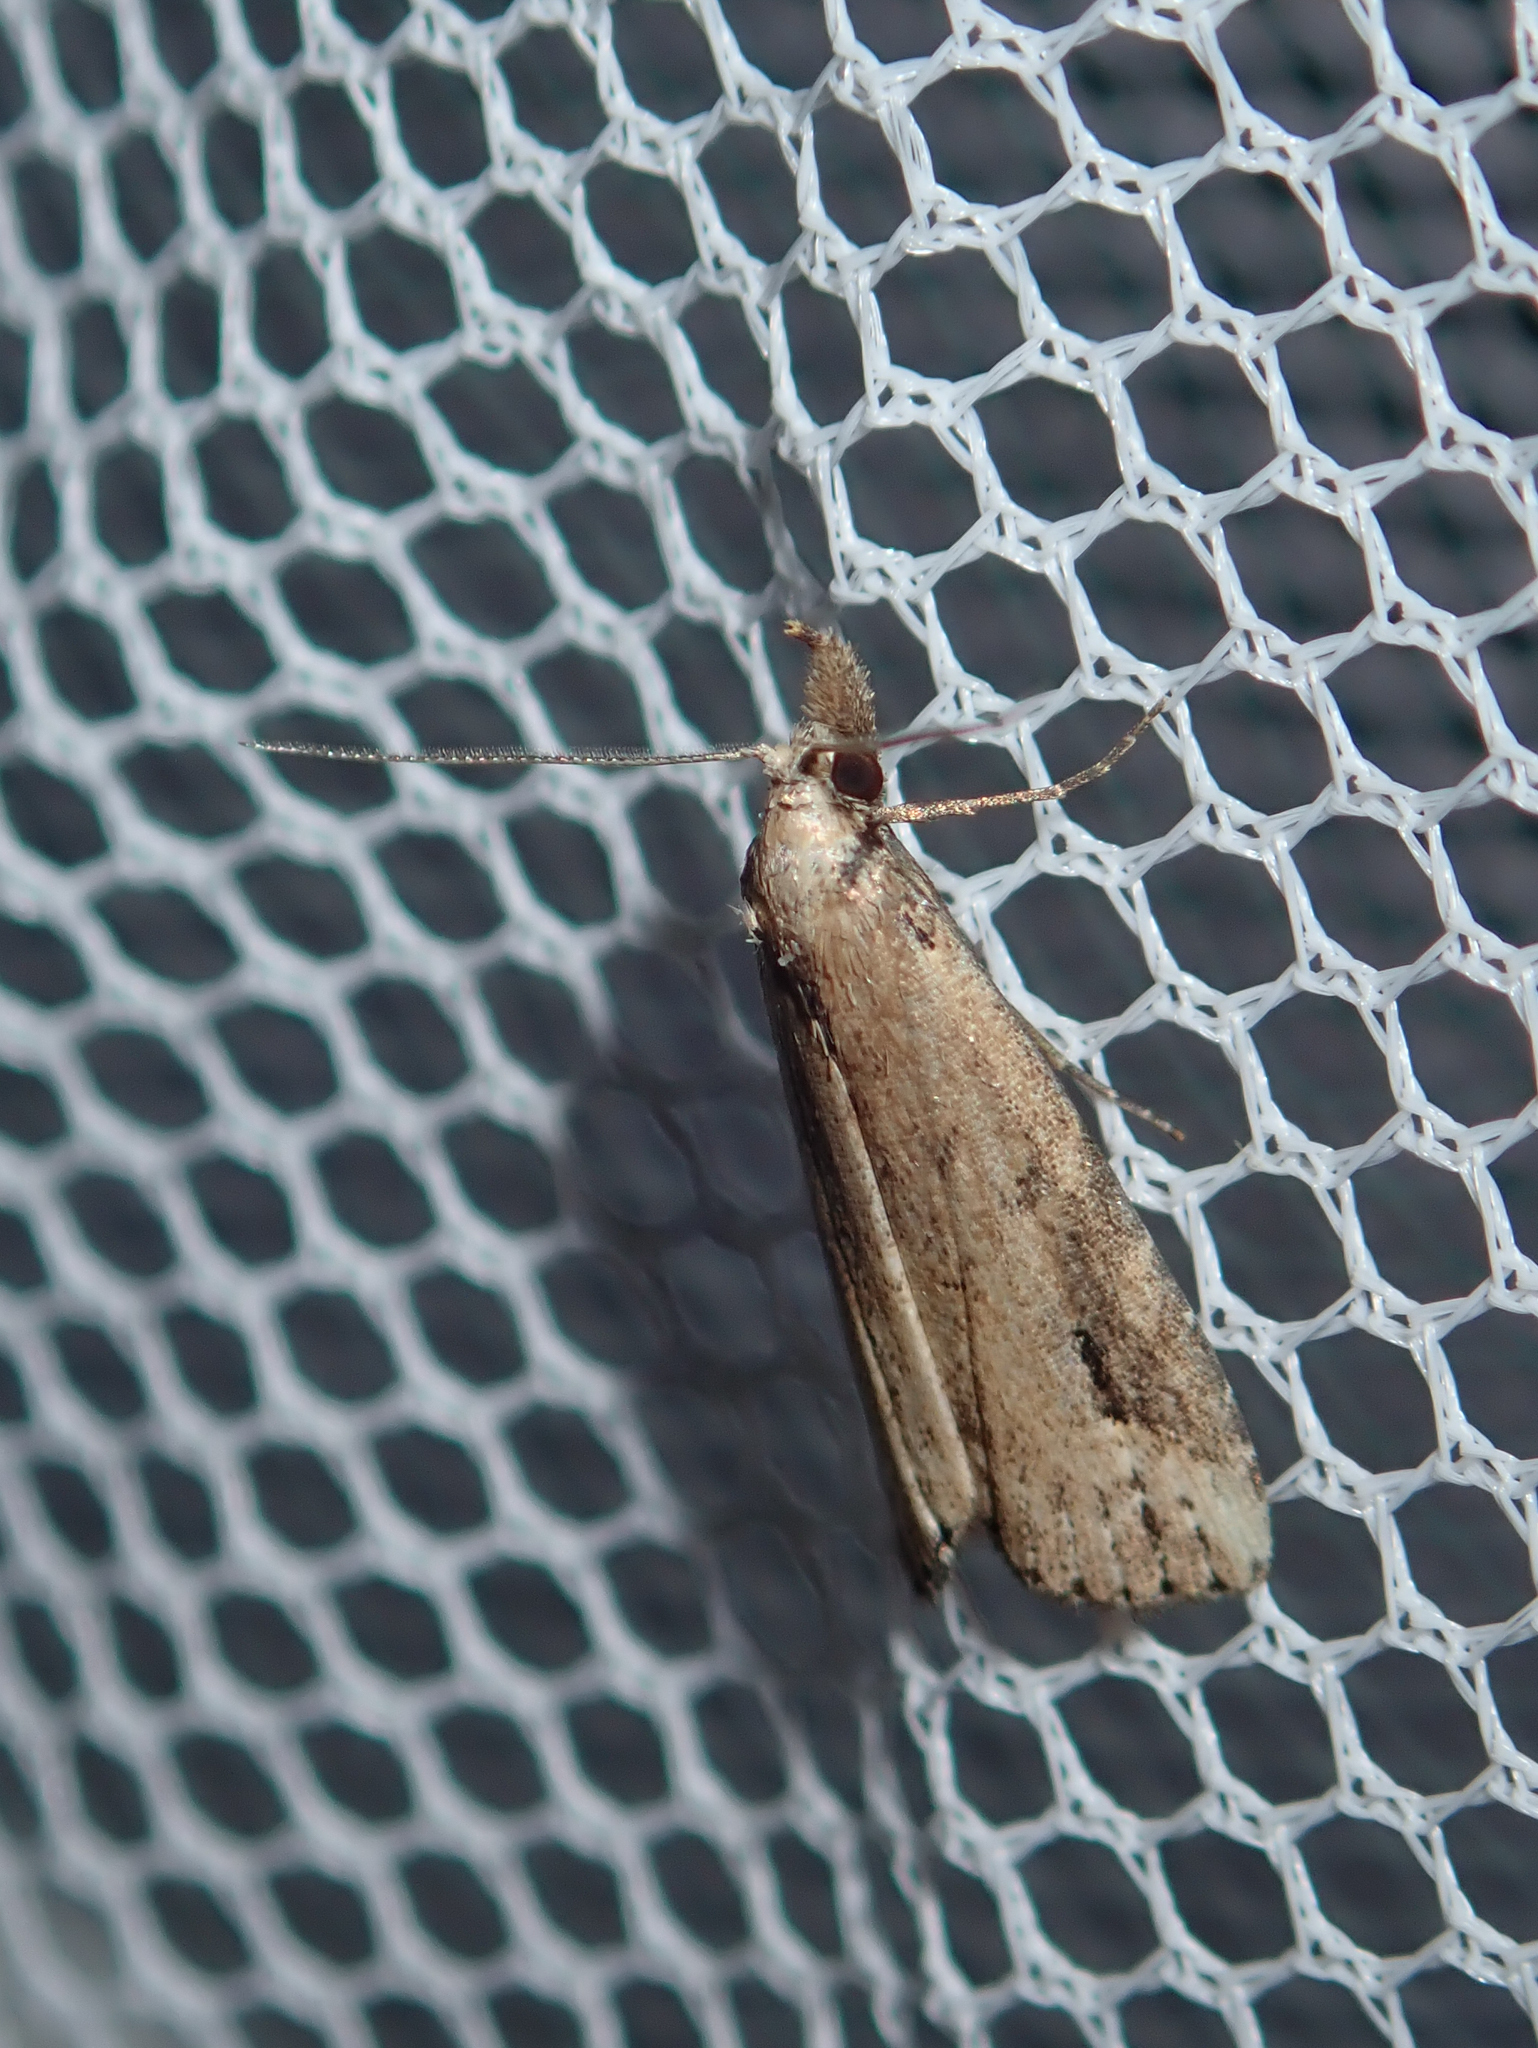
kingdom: Animalia
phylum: Arthropoda
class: Insecta
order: Lepidoptera
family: Erebidae
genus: Schrankia
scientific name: Schrankia costaestrigalis
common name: Pinion-streaked snout
